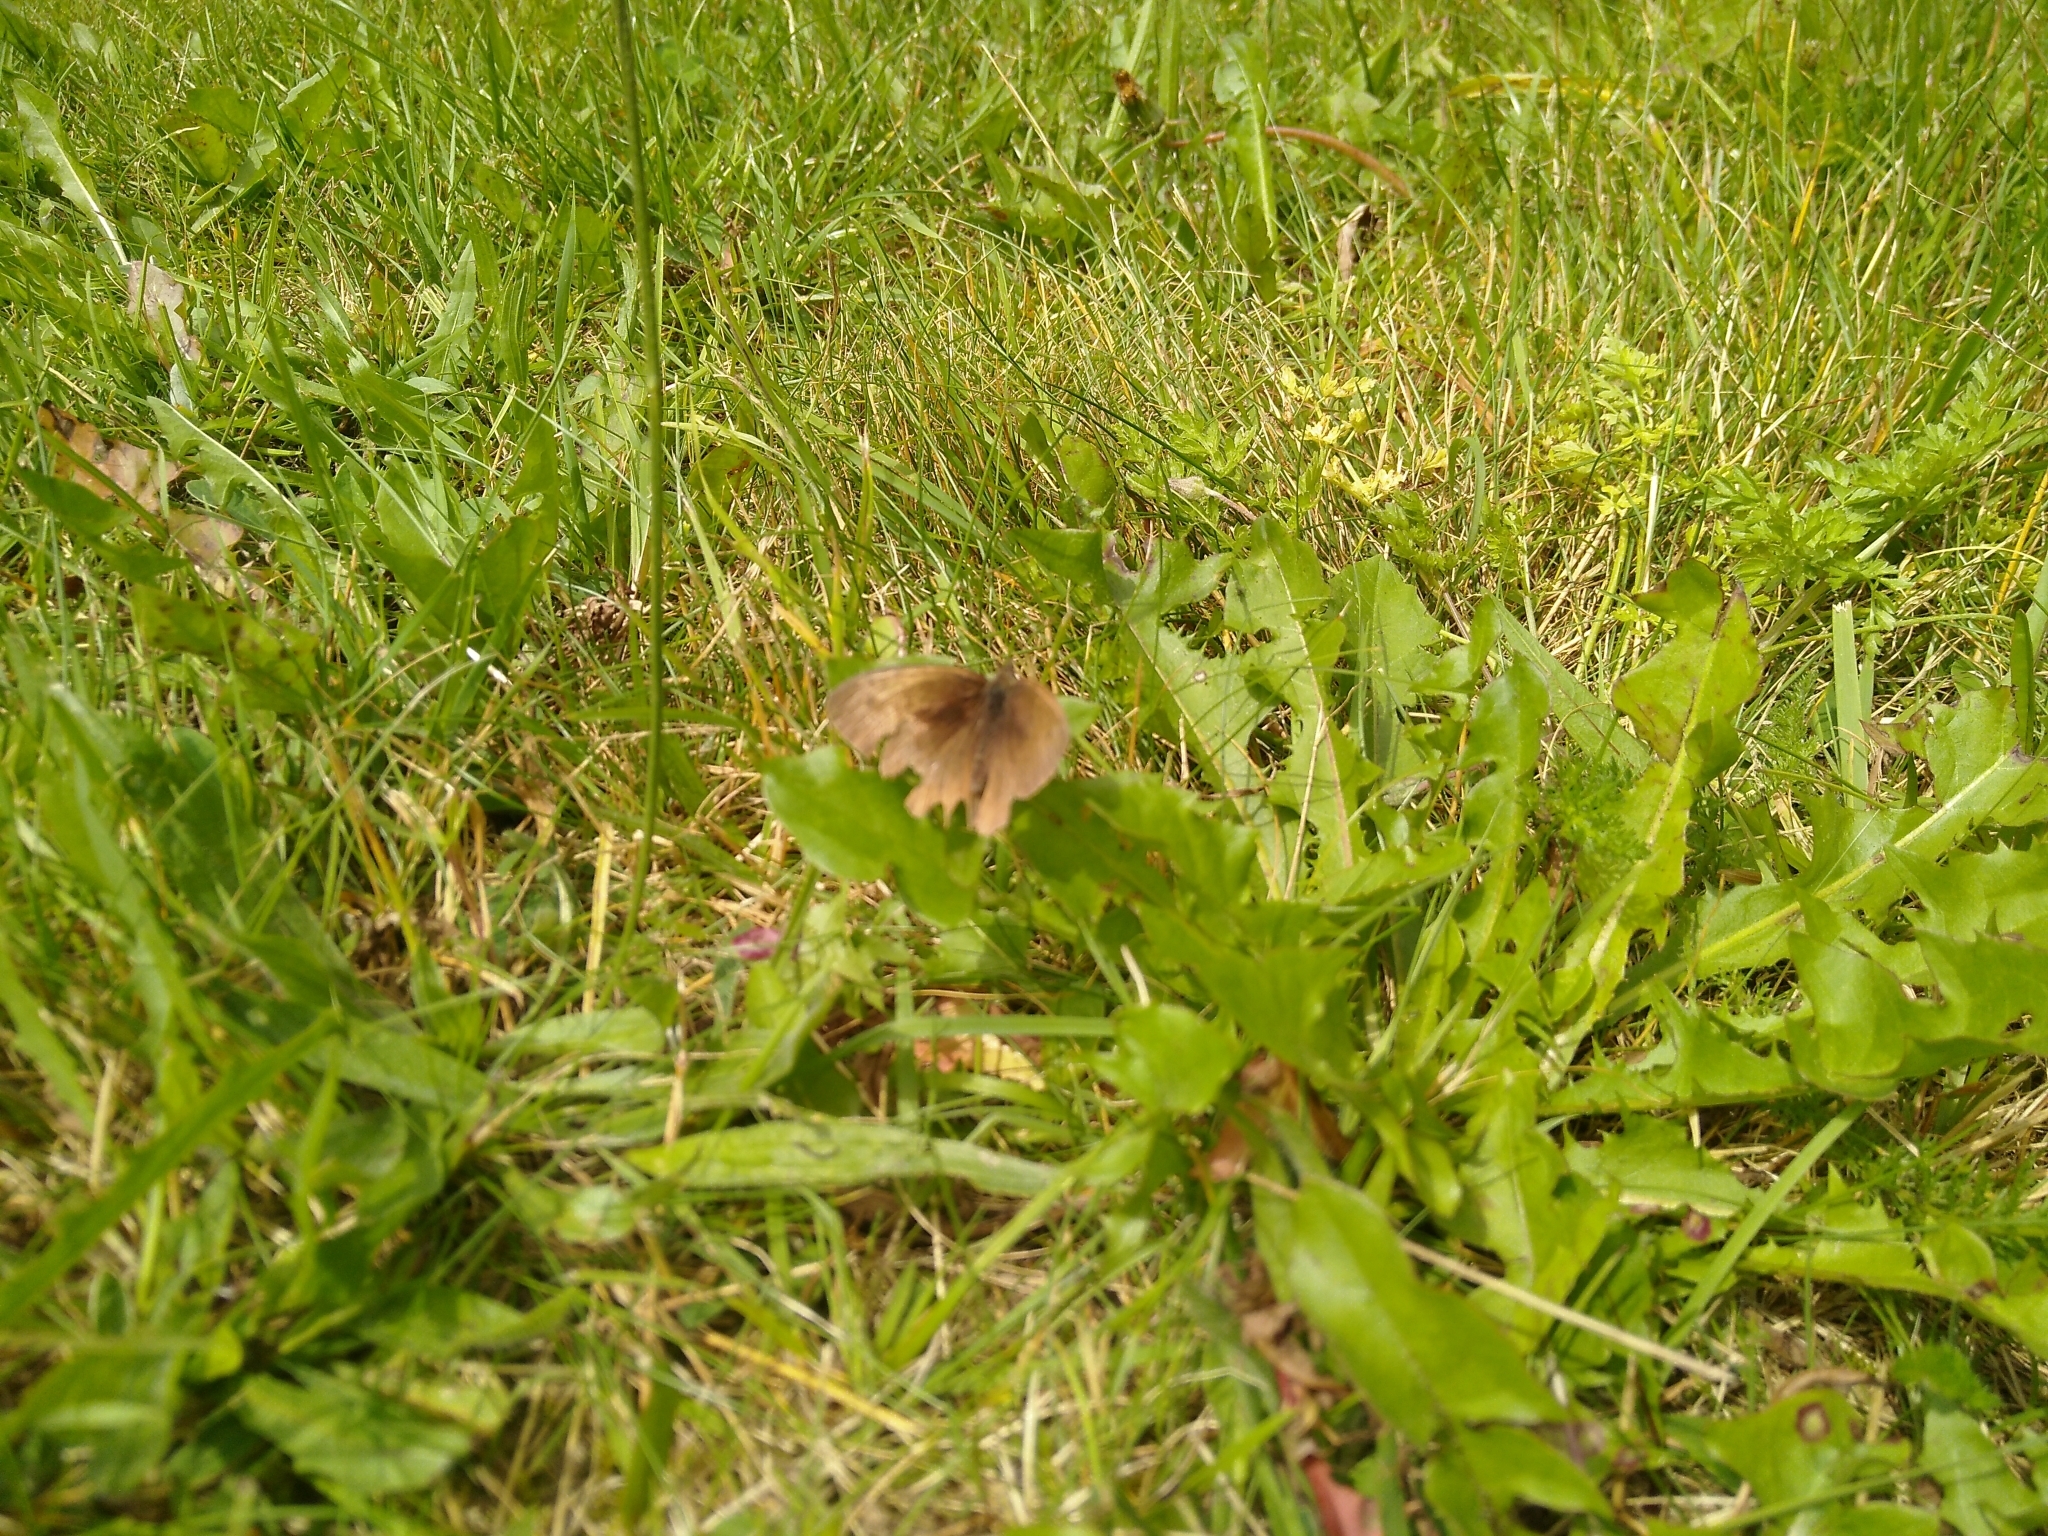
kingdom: Animalia
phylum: Arthropoda
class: Insecta
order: Lepidoptera
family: Nymphalidae
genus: Maniola
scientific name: Maniola jurtina
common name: Meadow brown
